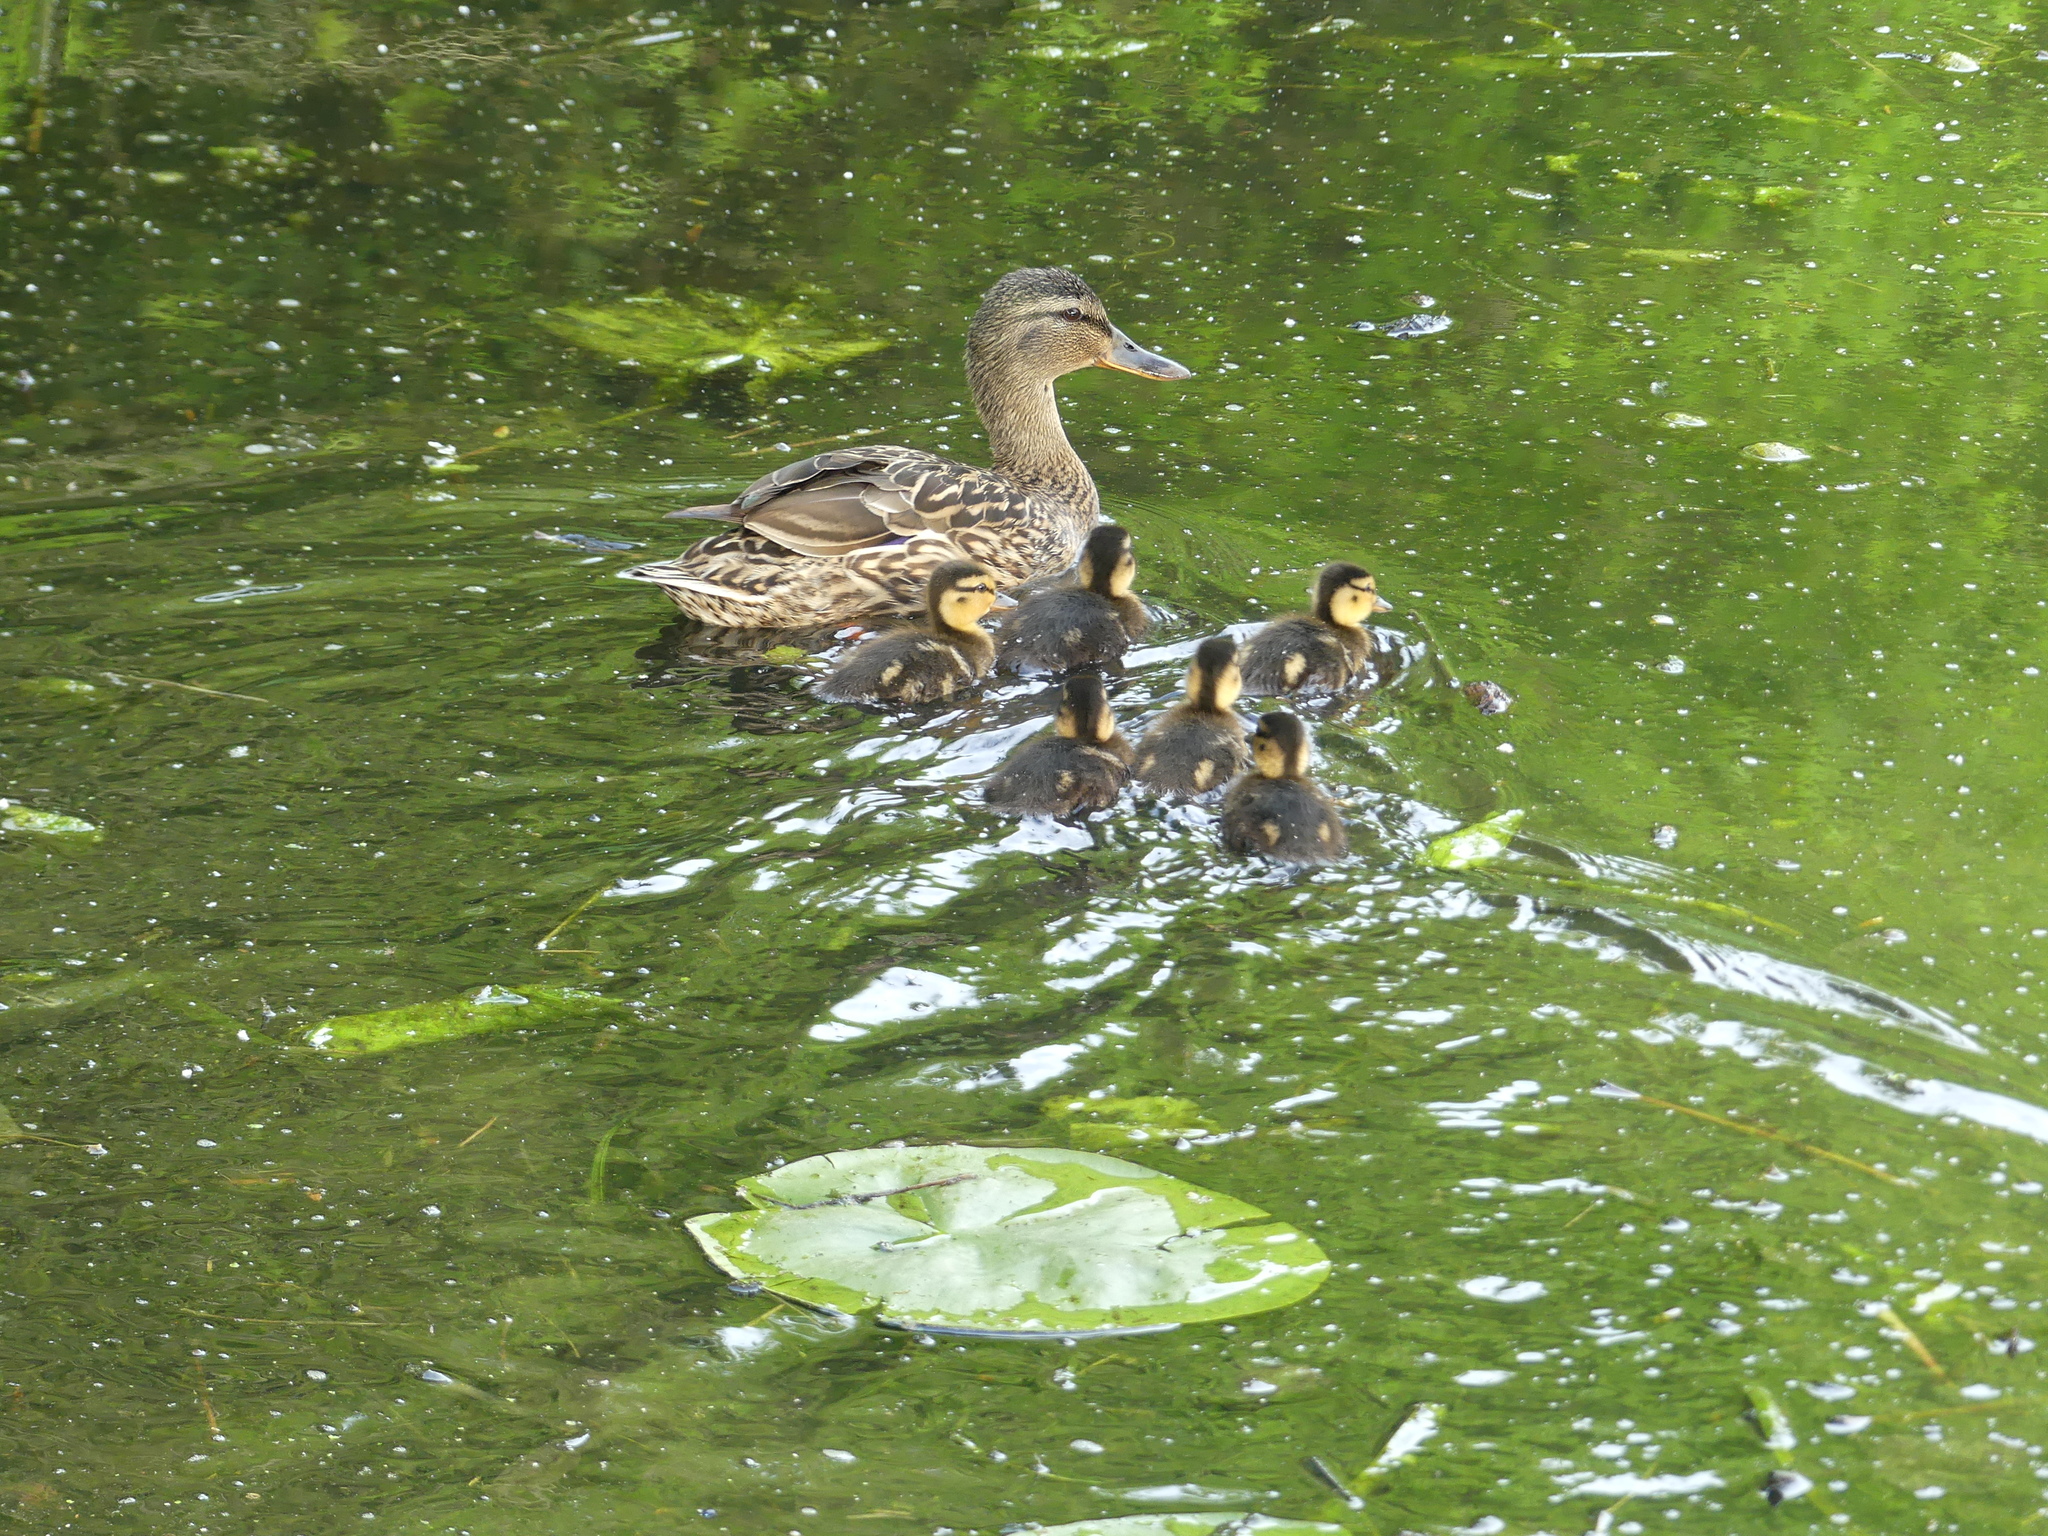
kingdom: Animalia
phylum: Chordata
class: Aves
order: Anseriformes
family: Anatidae
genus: Anas
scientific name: Anas platyrhynchos
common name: Mallard
